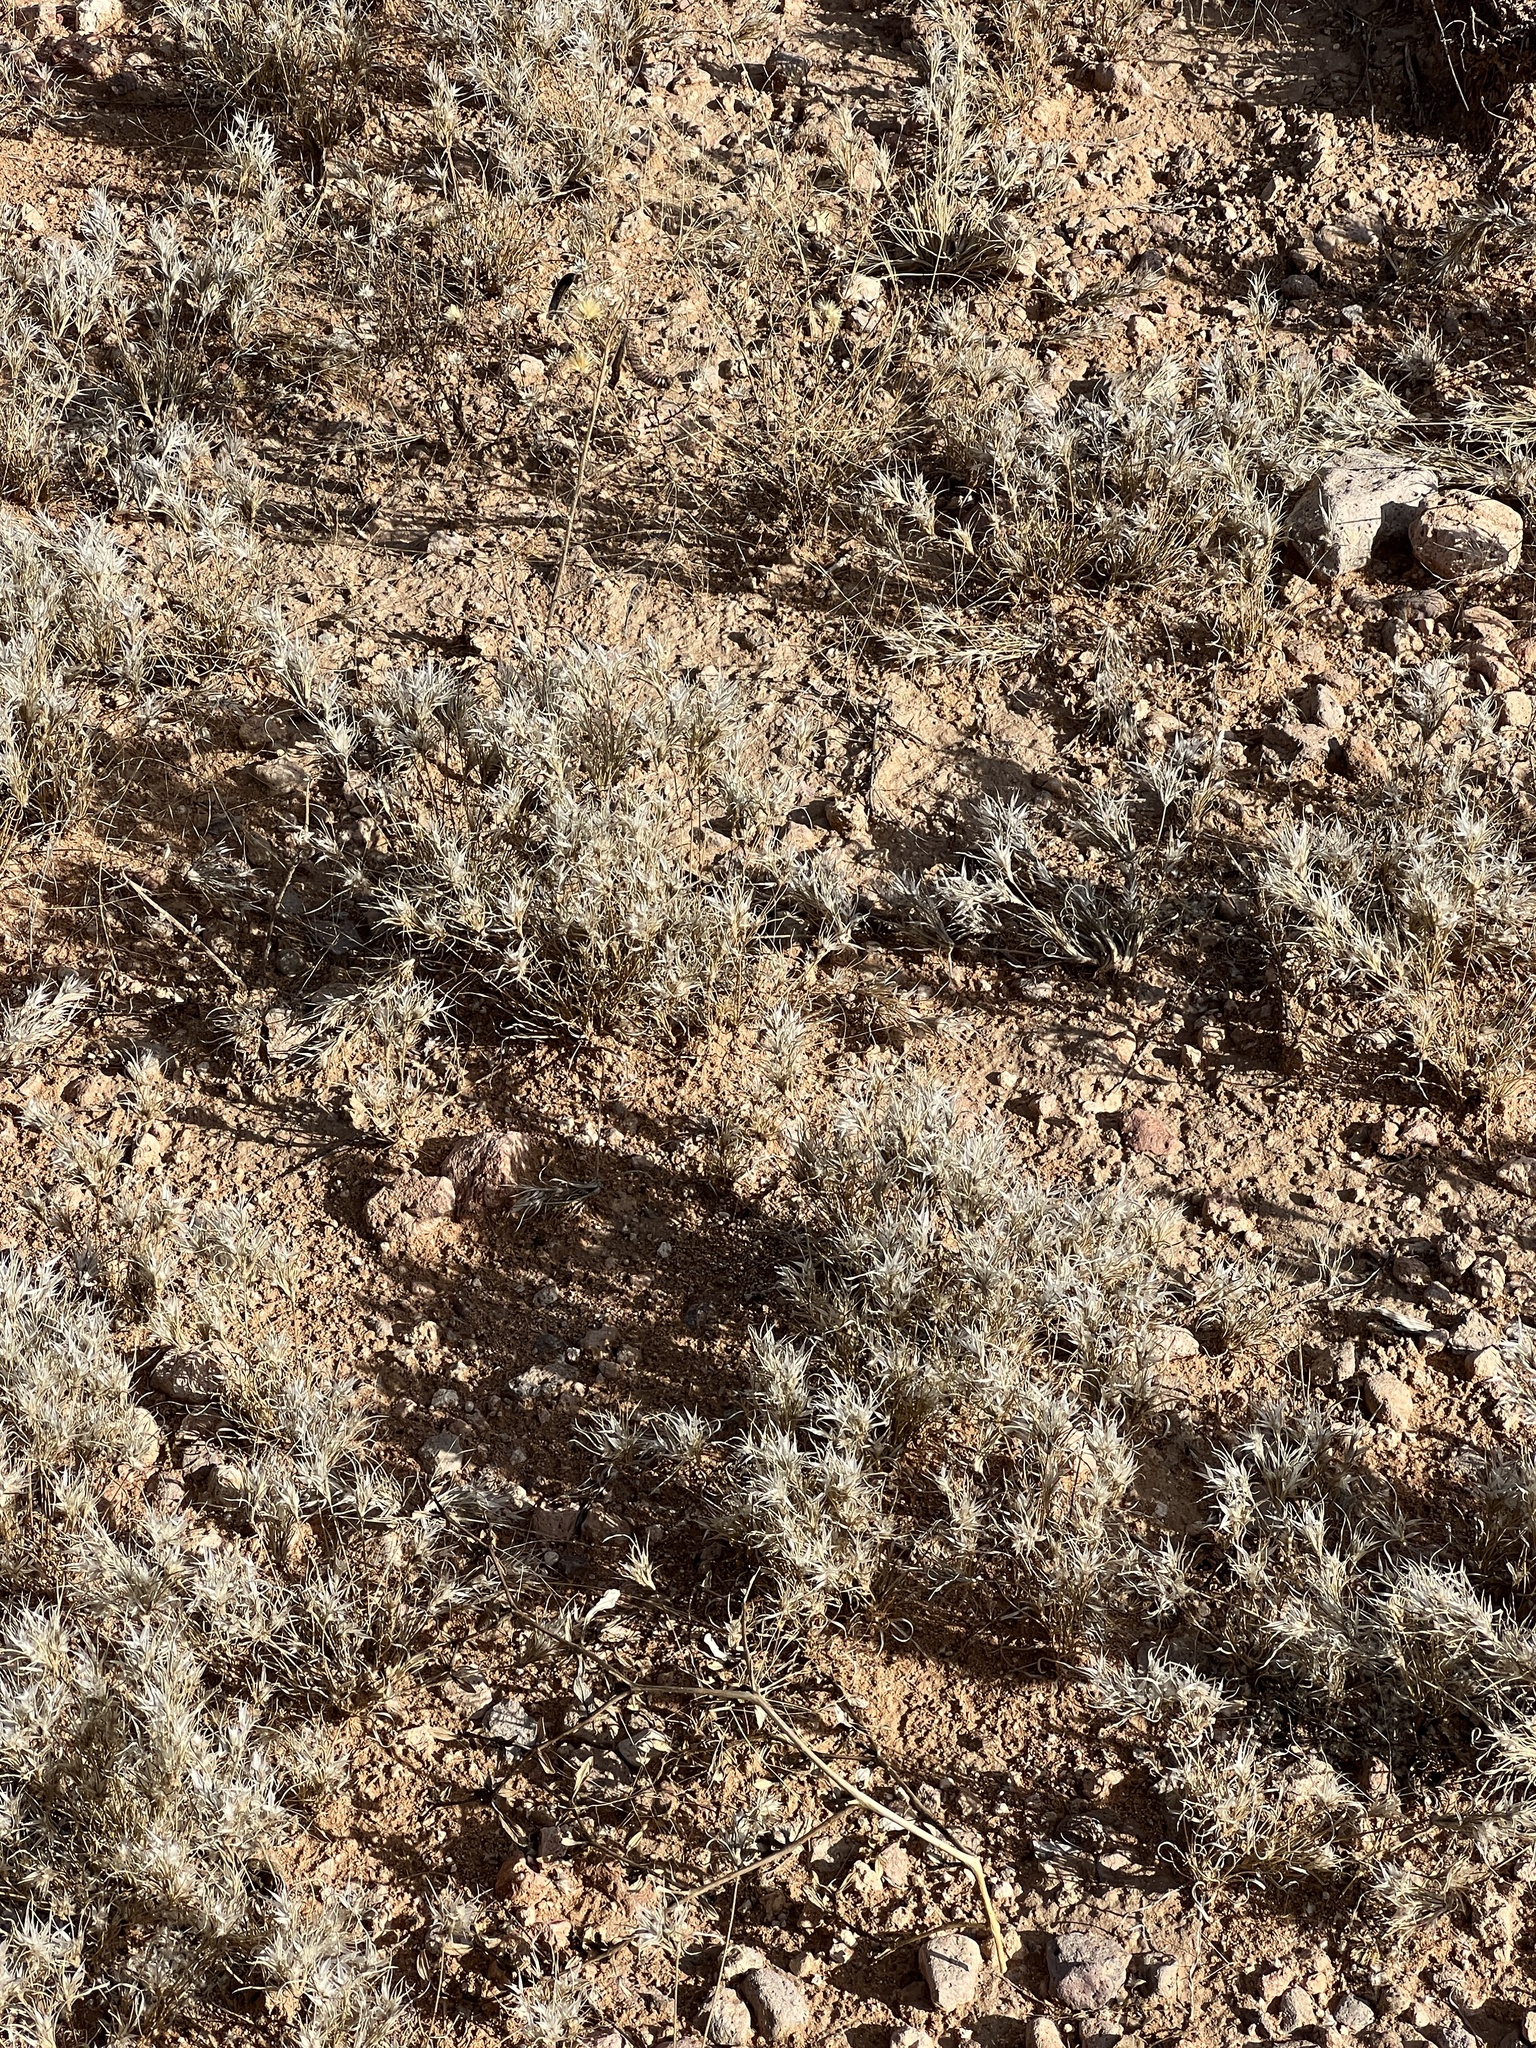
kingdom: Plantae
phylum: Tracheophyta
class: Liliopsida
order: Poales
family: Poaceae
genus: Dasyochloa
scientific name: Dasyochloa pulchella
